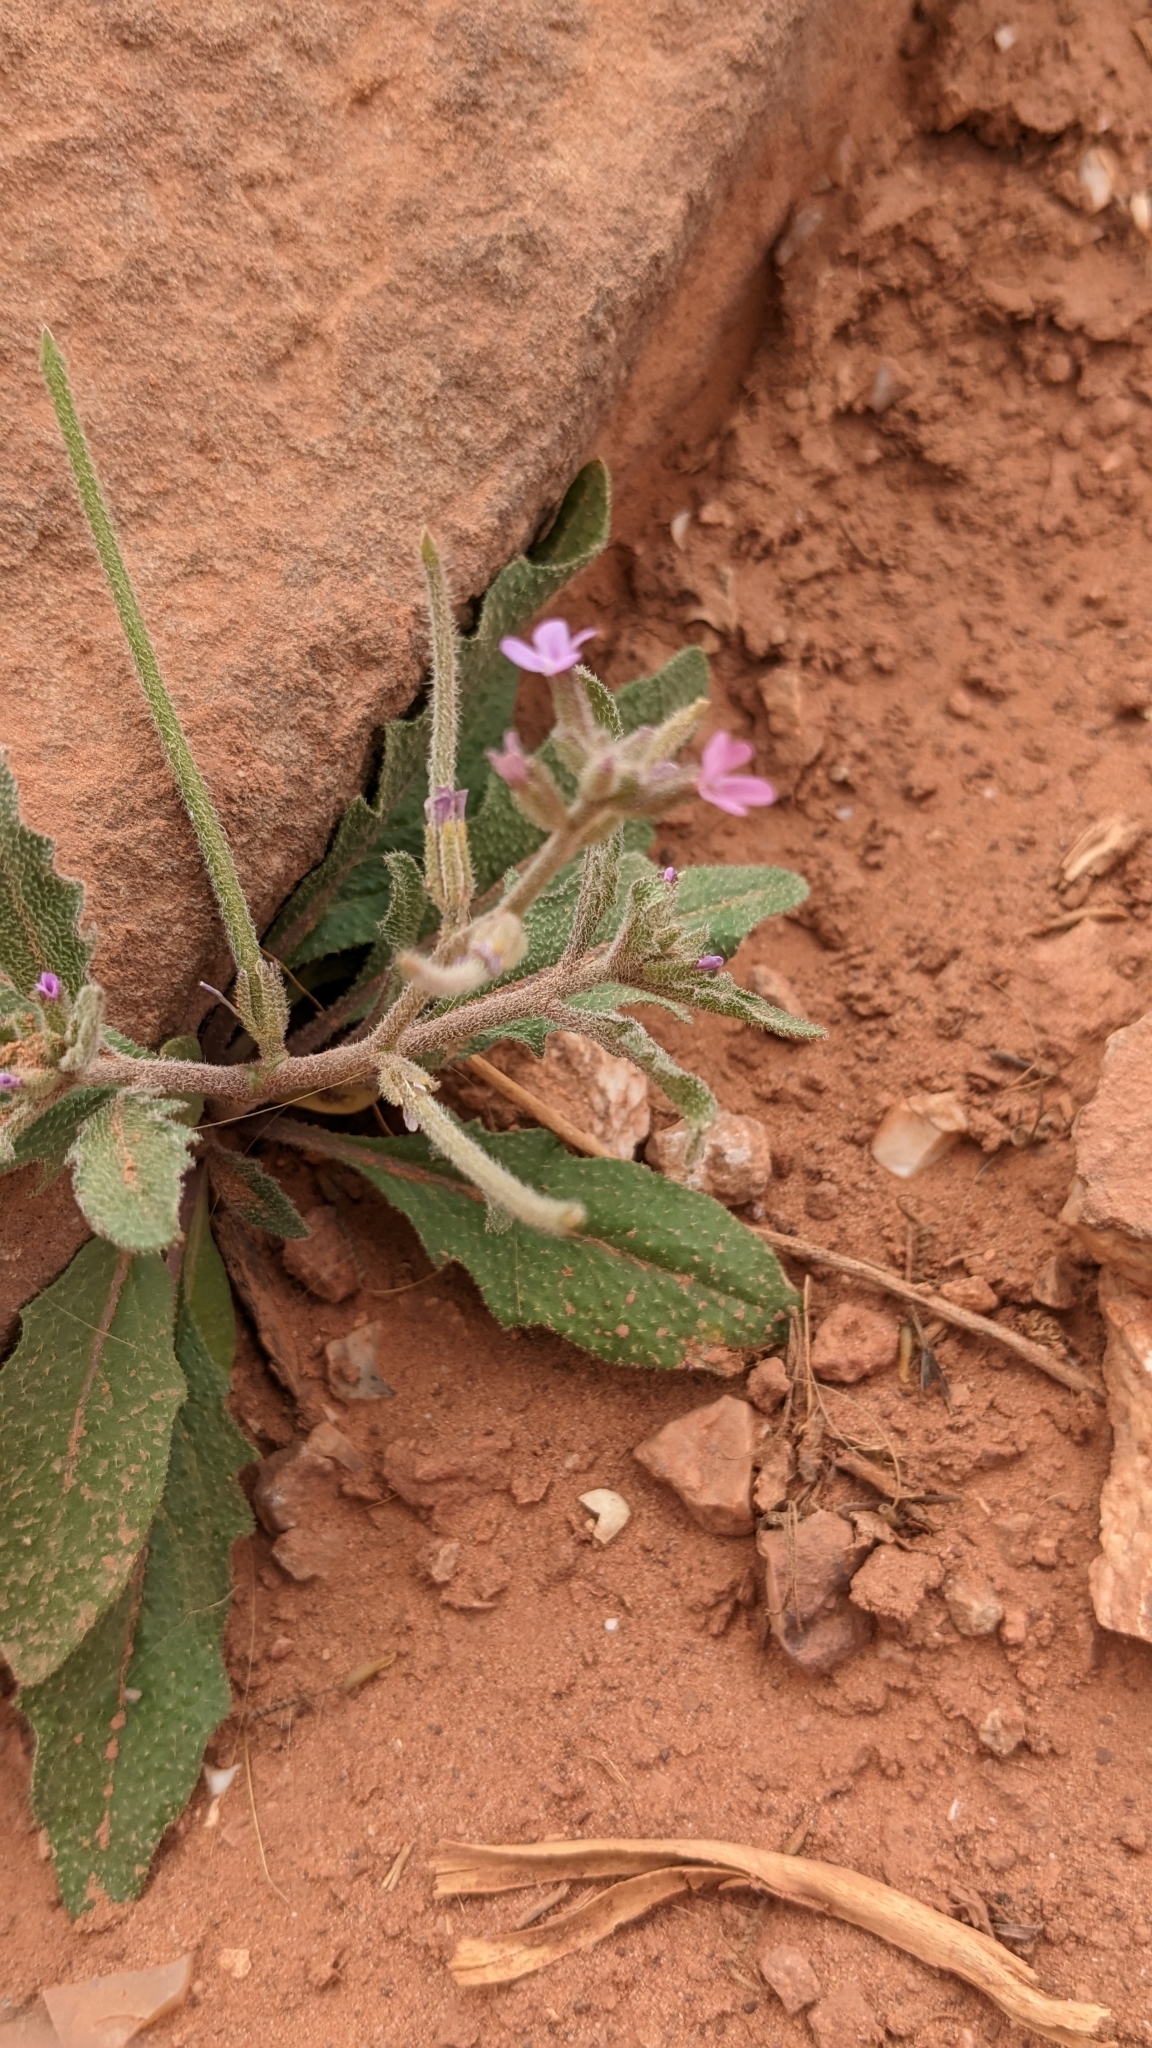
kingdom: Plantae
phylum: Tracheophyta
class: Magnoliopsida
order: Brassicales
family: Brassicaceae
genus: Strigosella
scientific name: Strigosella africana
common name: African mustard
